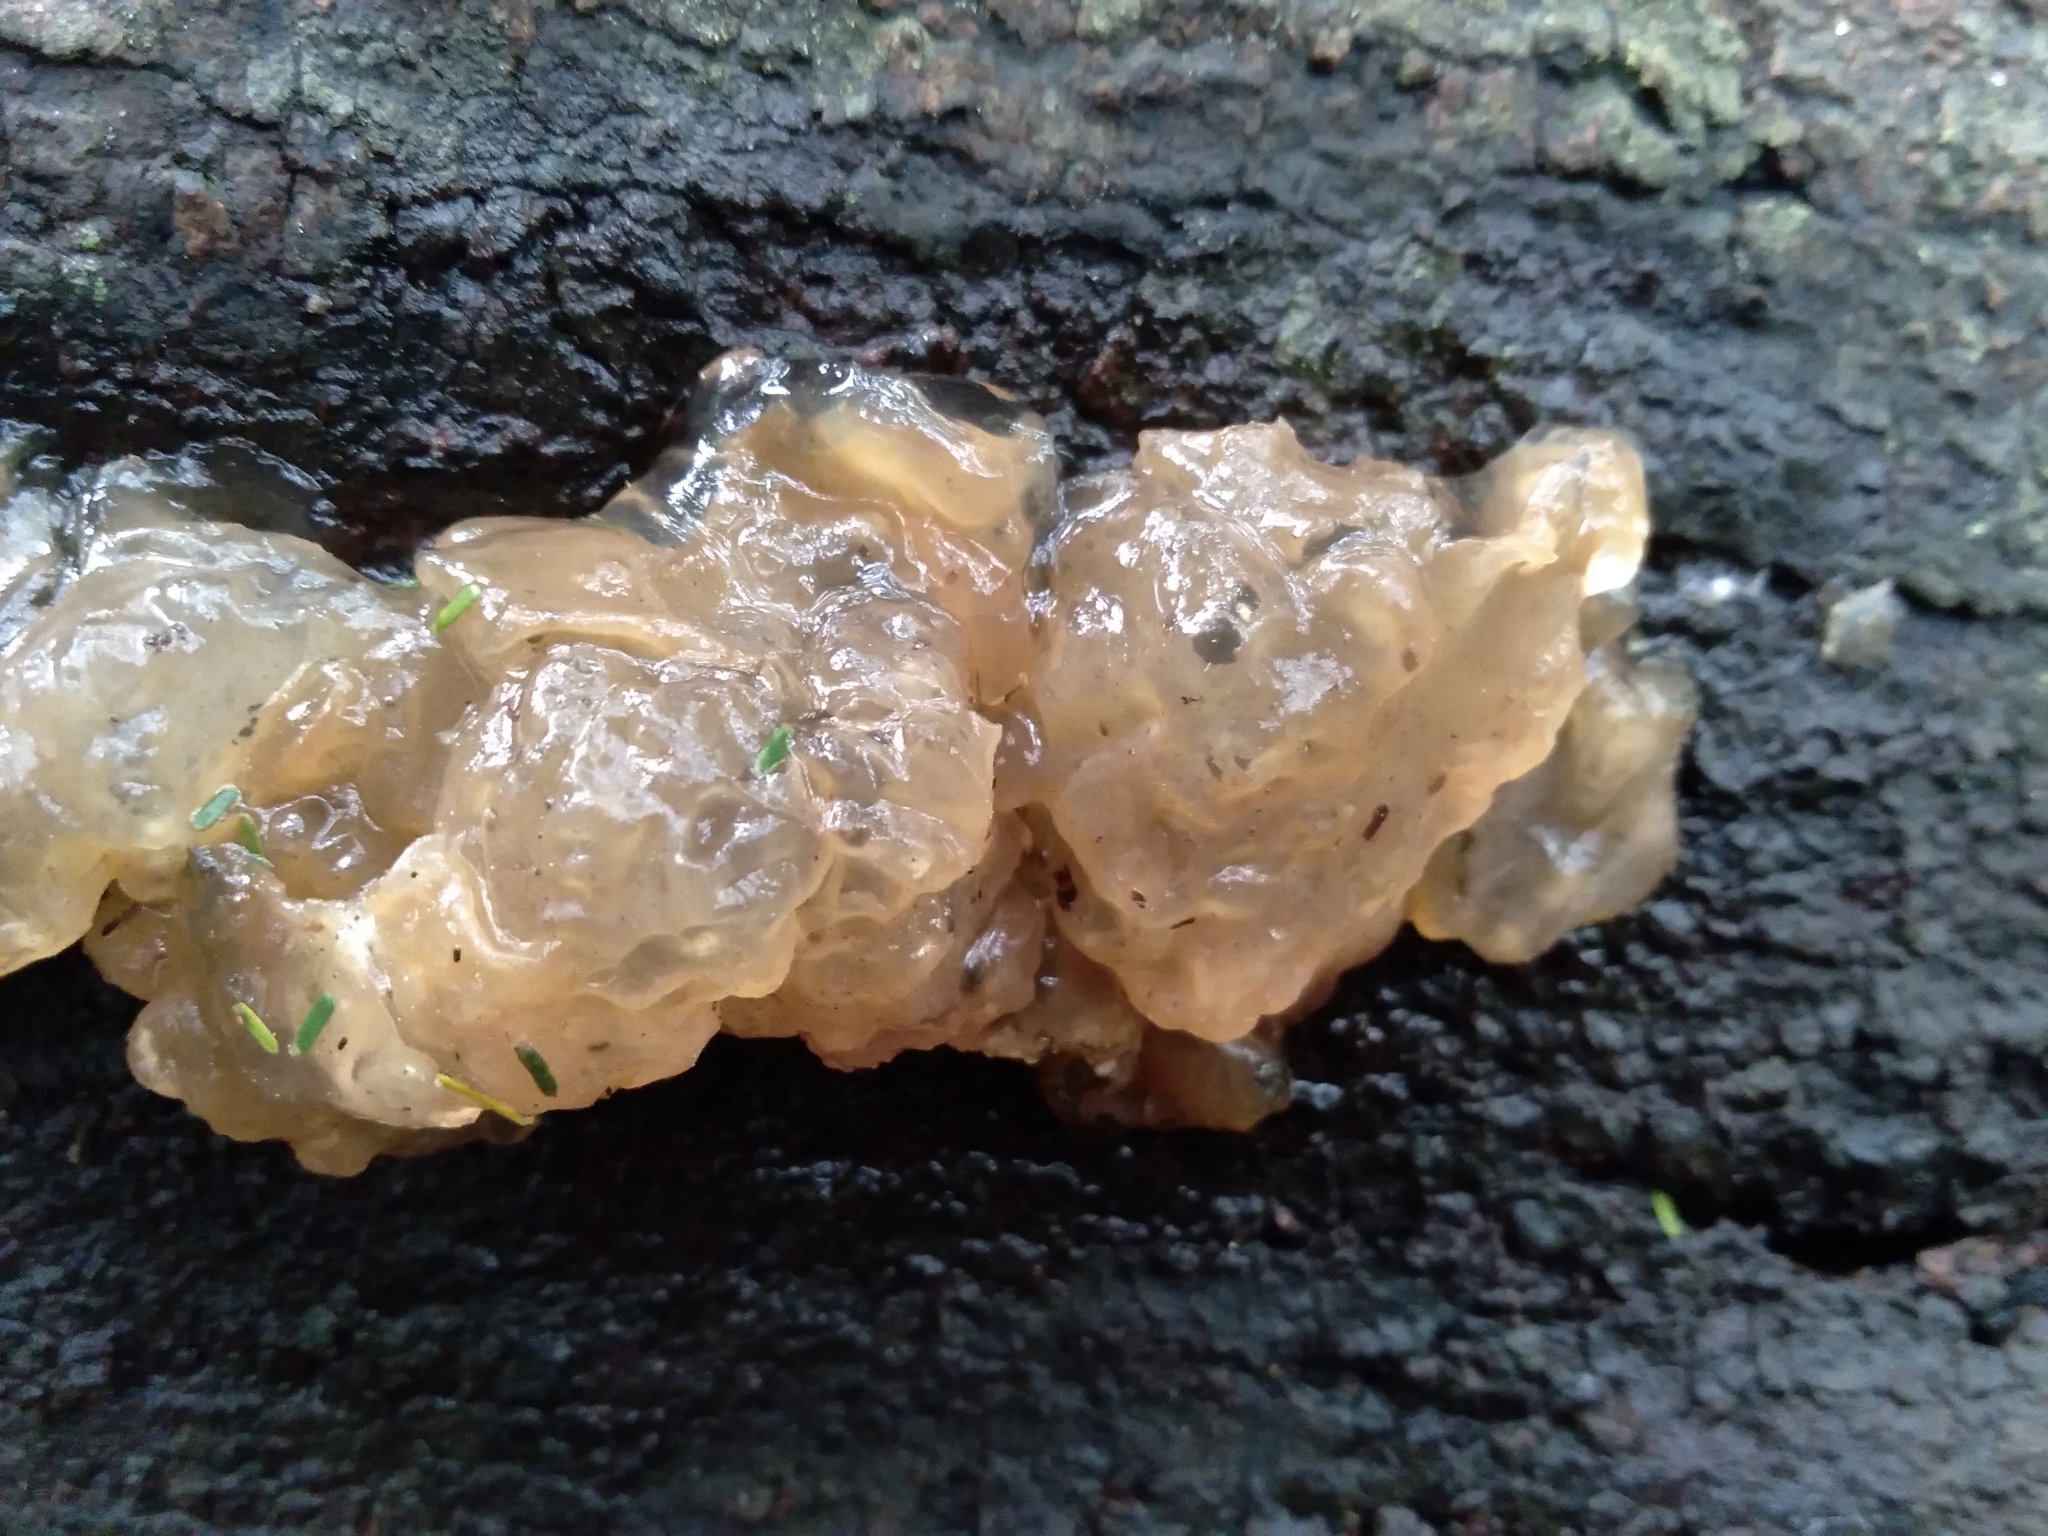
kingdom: Fungi
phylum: Basidiomycota
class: Agaricomycetes
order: Auriculariales
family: Hyaloriaceae
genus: Myxarium
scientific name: Myxarium nucleatum
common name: Crystal brain fungus
